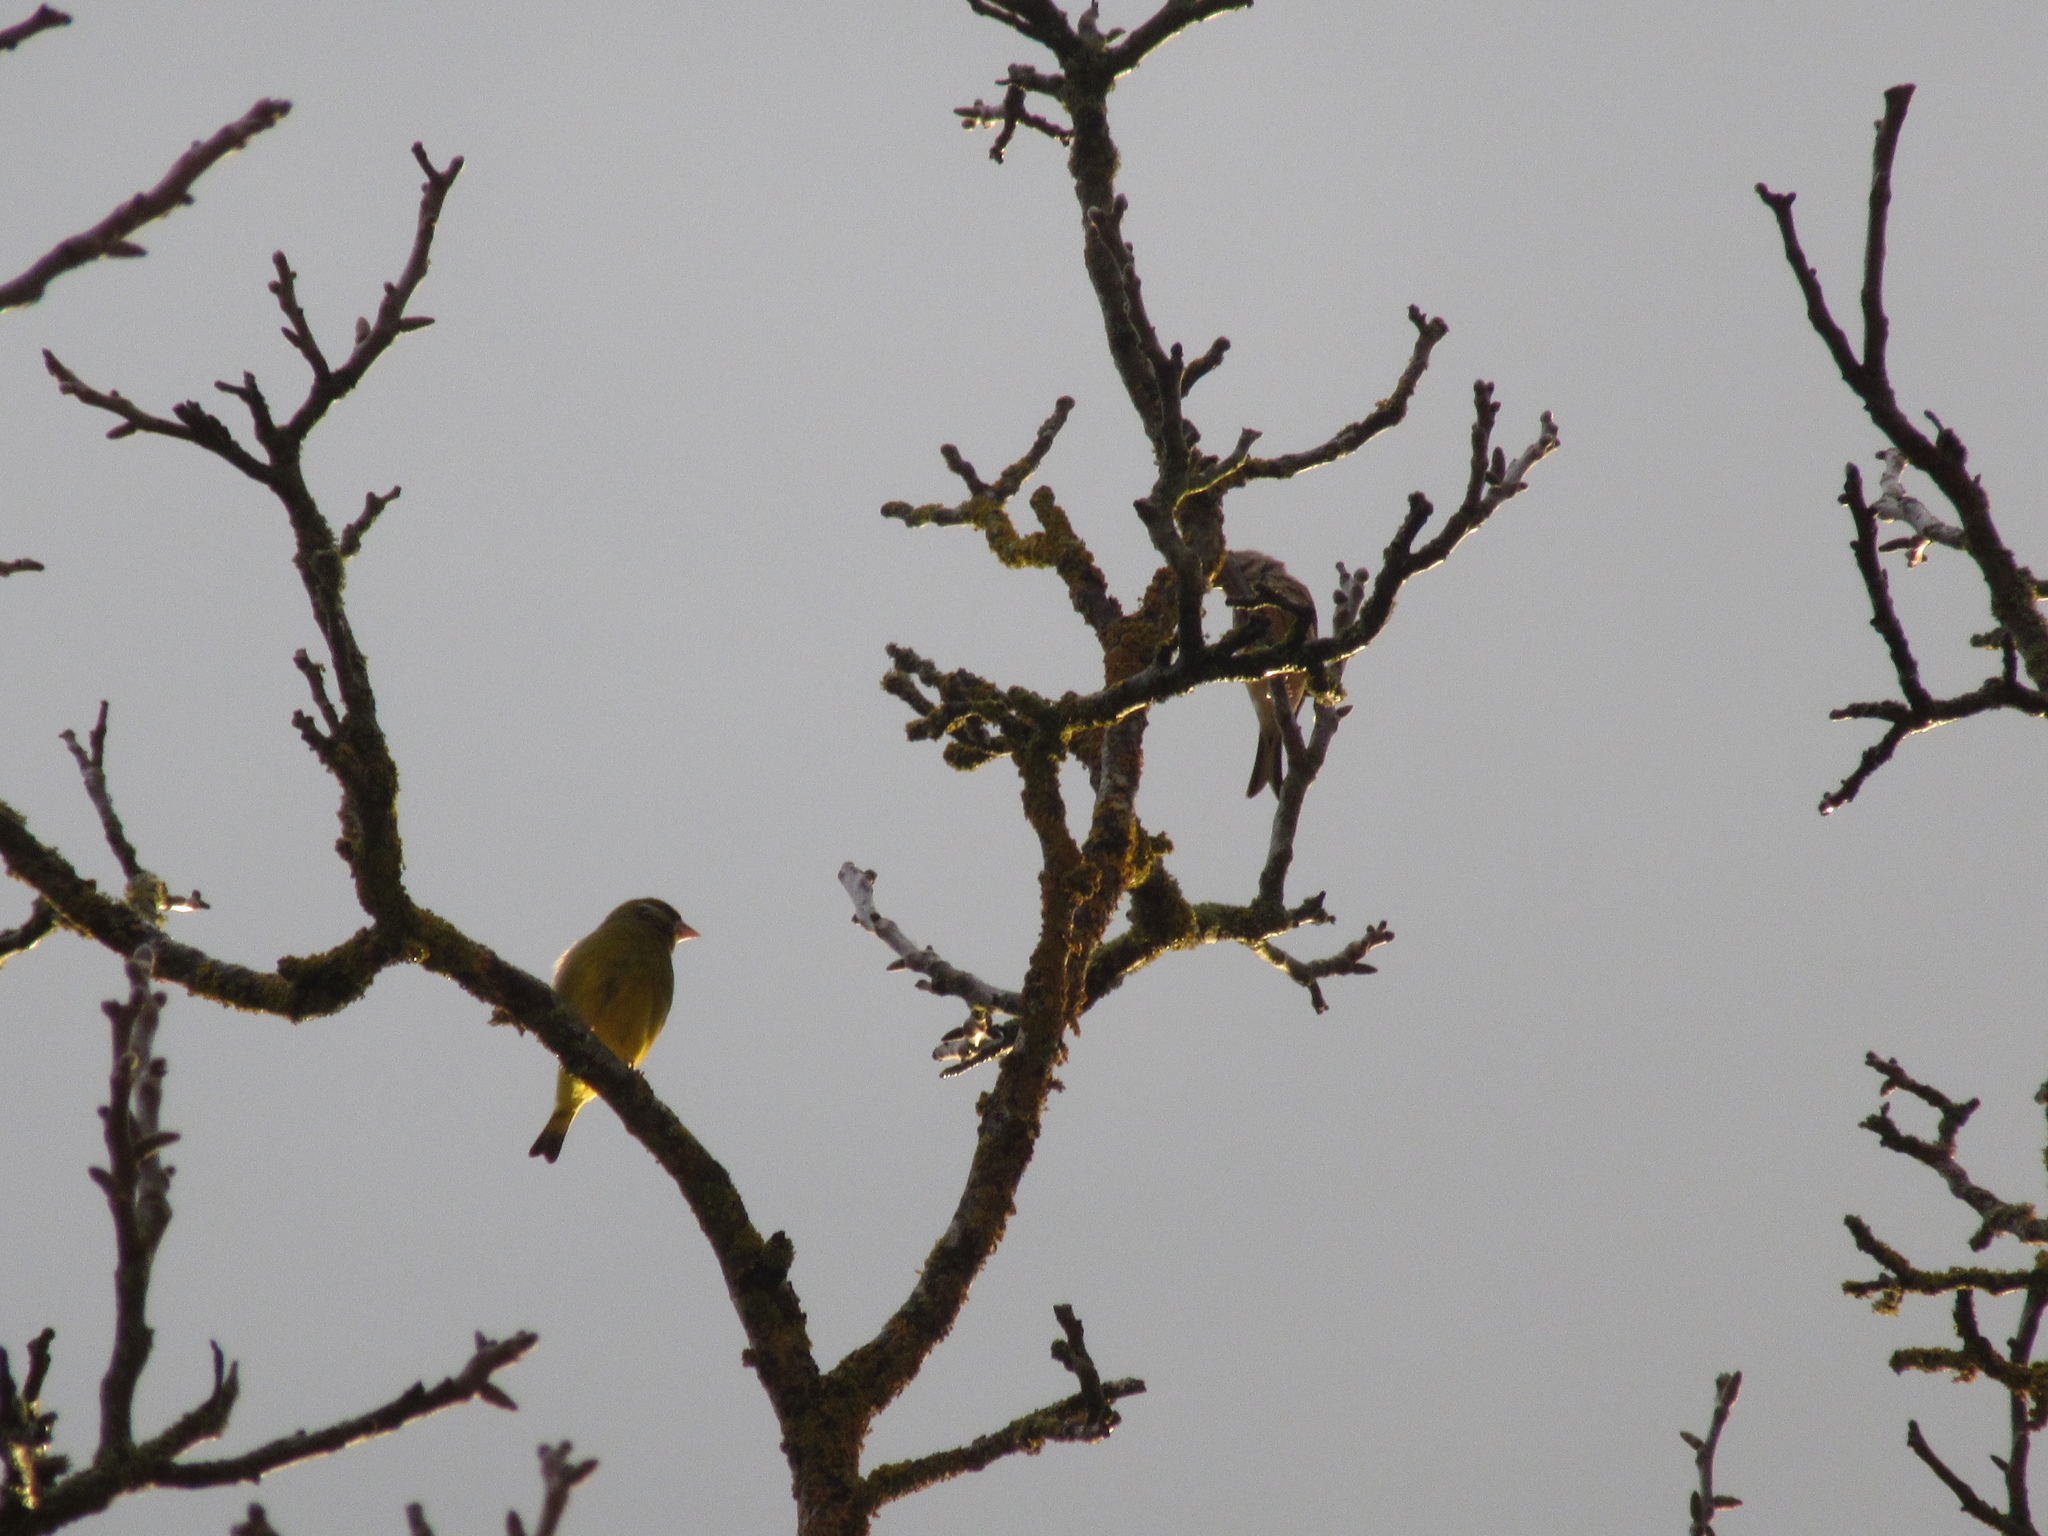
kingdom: Plantae
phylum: Tracheophyta
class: Liliopsida
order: Poales
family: Poaceae
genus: Chloris
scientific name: Chloris chloris
